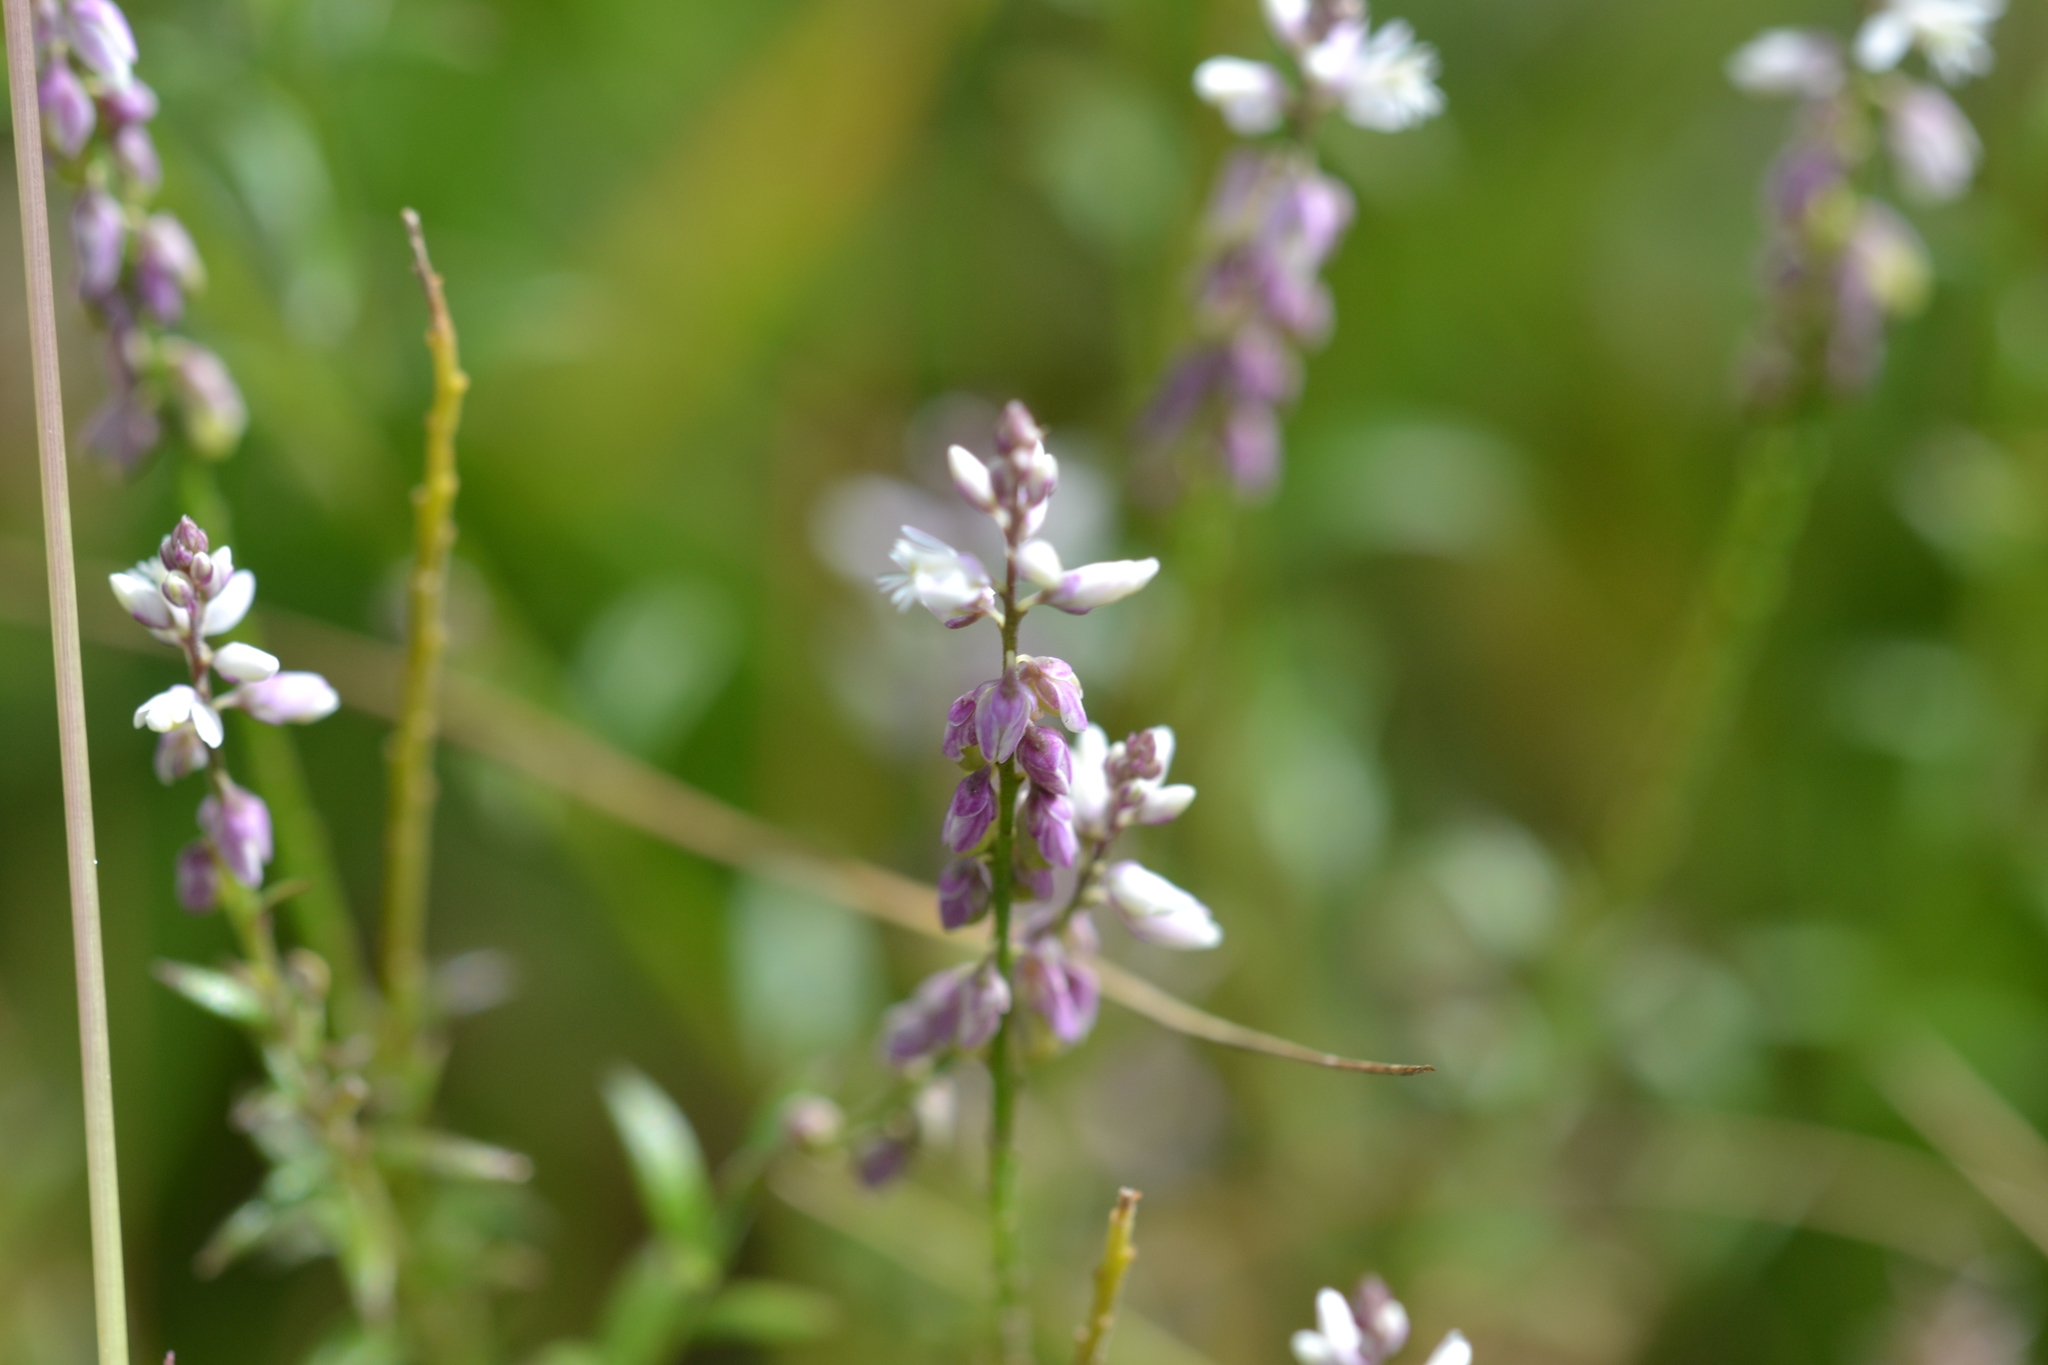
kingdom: Plantae
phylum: Tracheophyta
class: Magnoliopsida
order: Fabales
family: Polygalaceae
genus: Polygala
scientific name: Polygala paniculata
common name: Orosne
